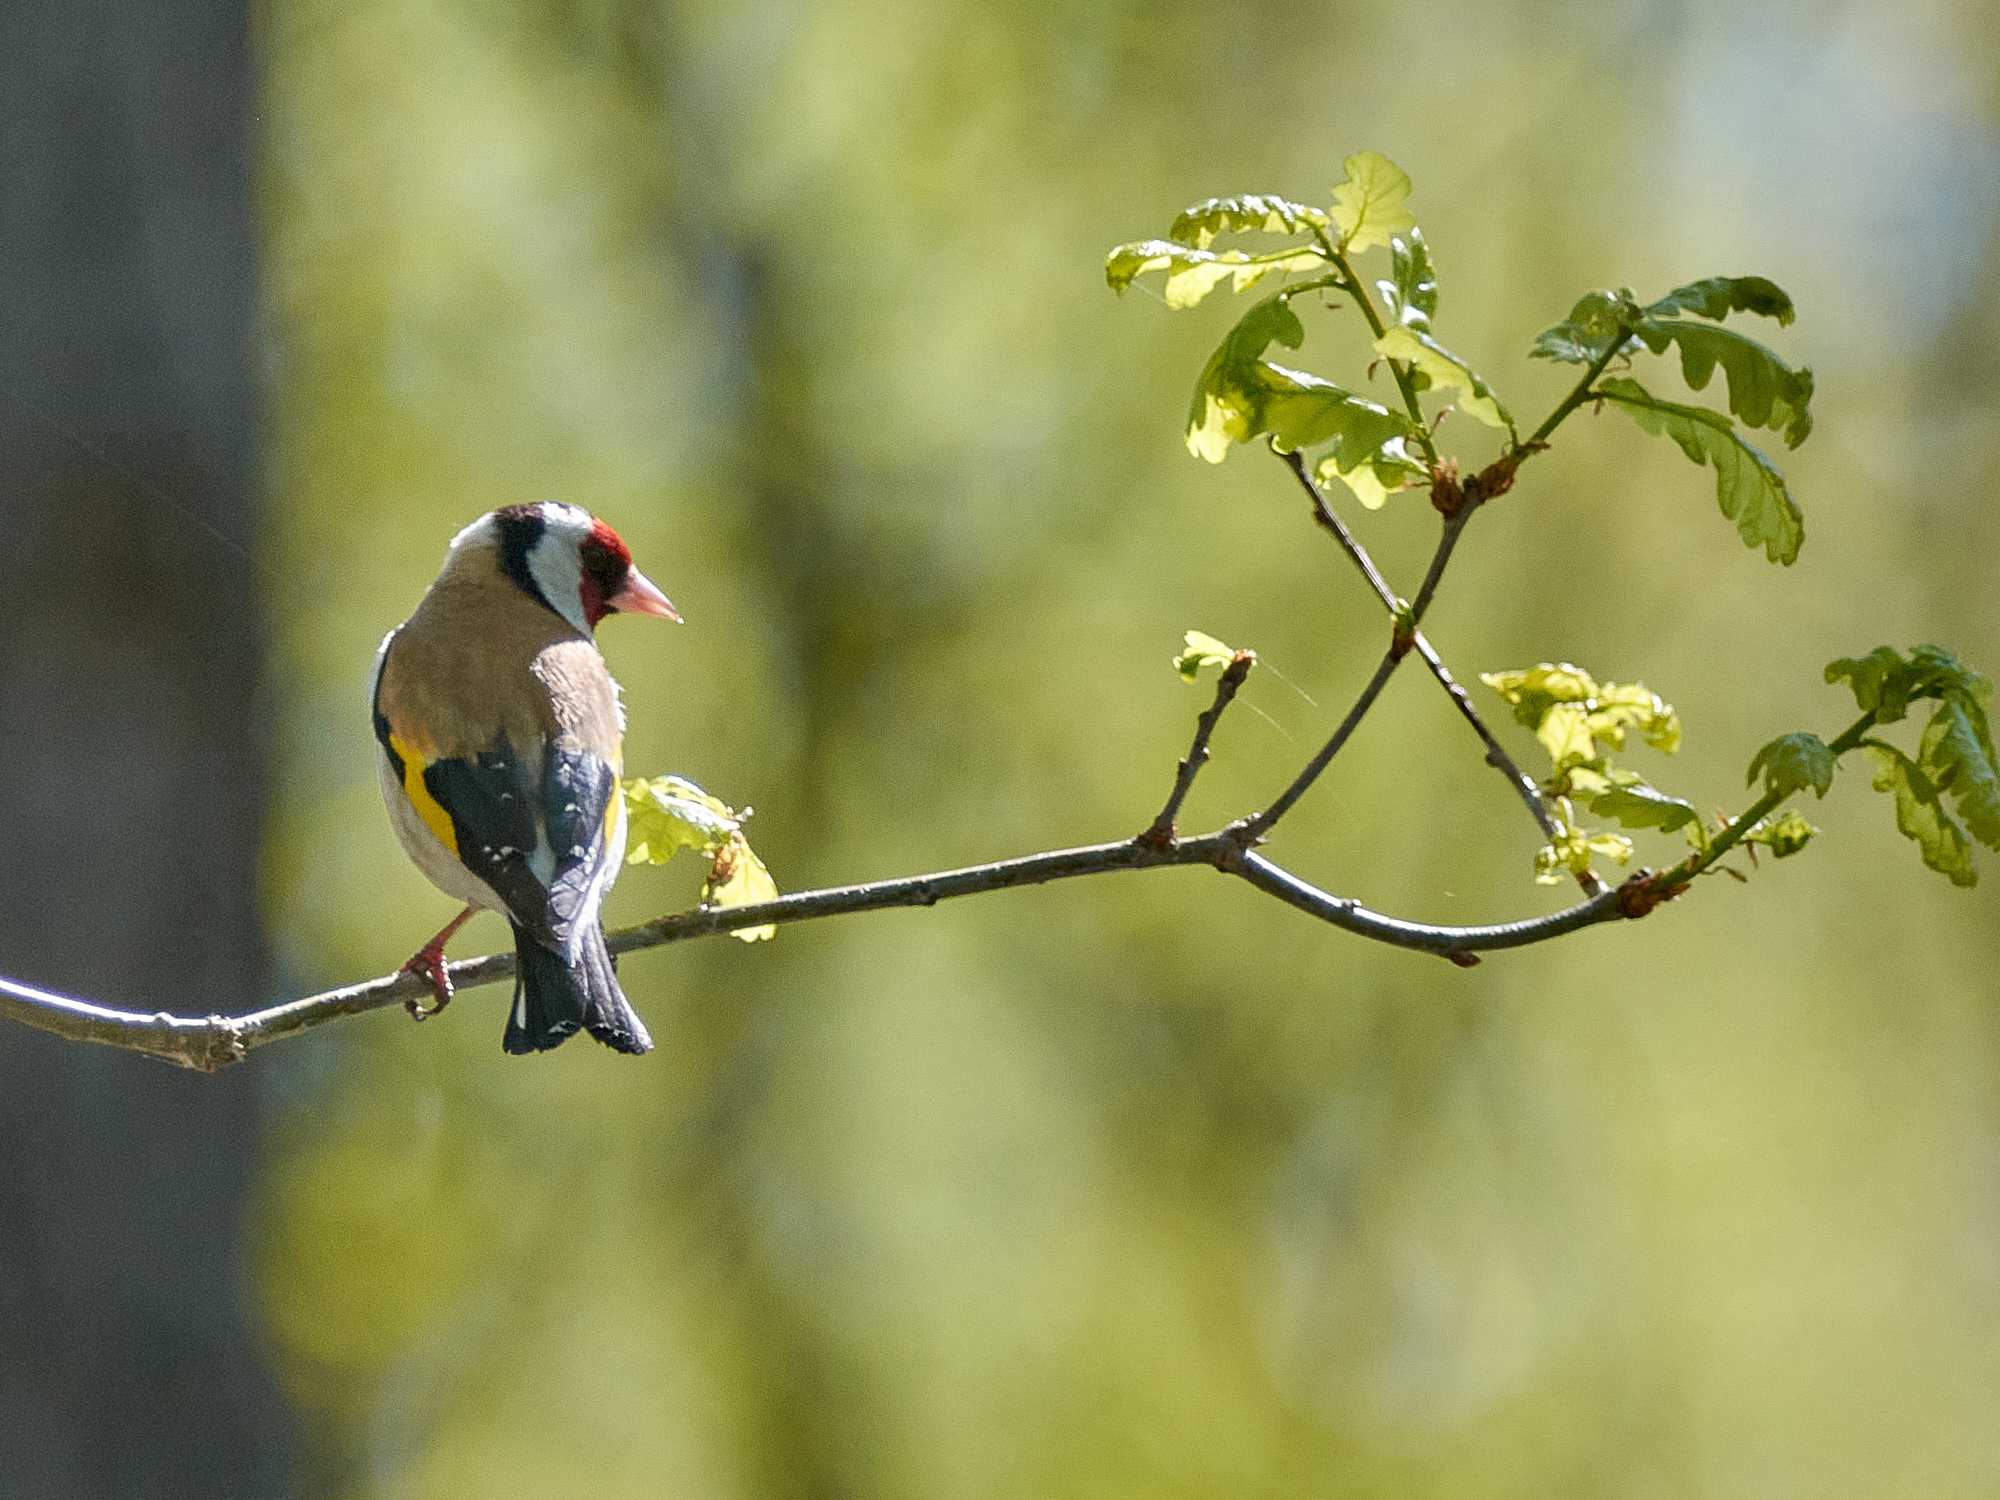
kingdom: Animalia
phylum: Chordata
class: Aves
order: Passeriformes
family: Fringillidae
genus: Carduelis
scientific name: Carduelis carduelis
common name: European goldfinch
